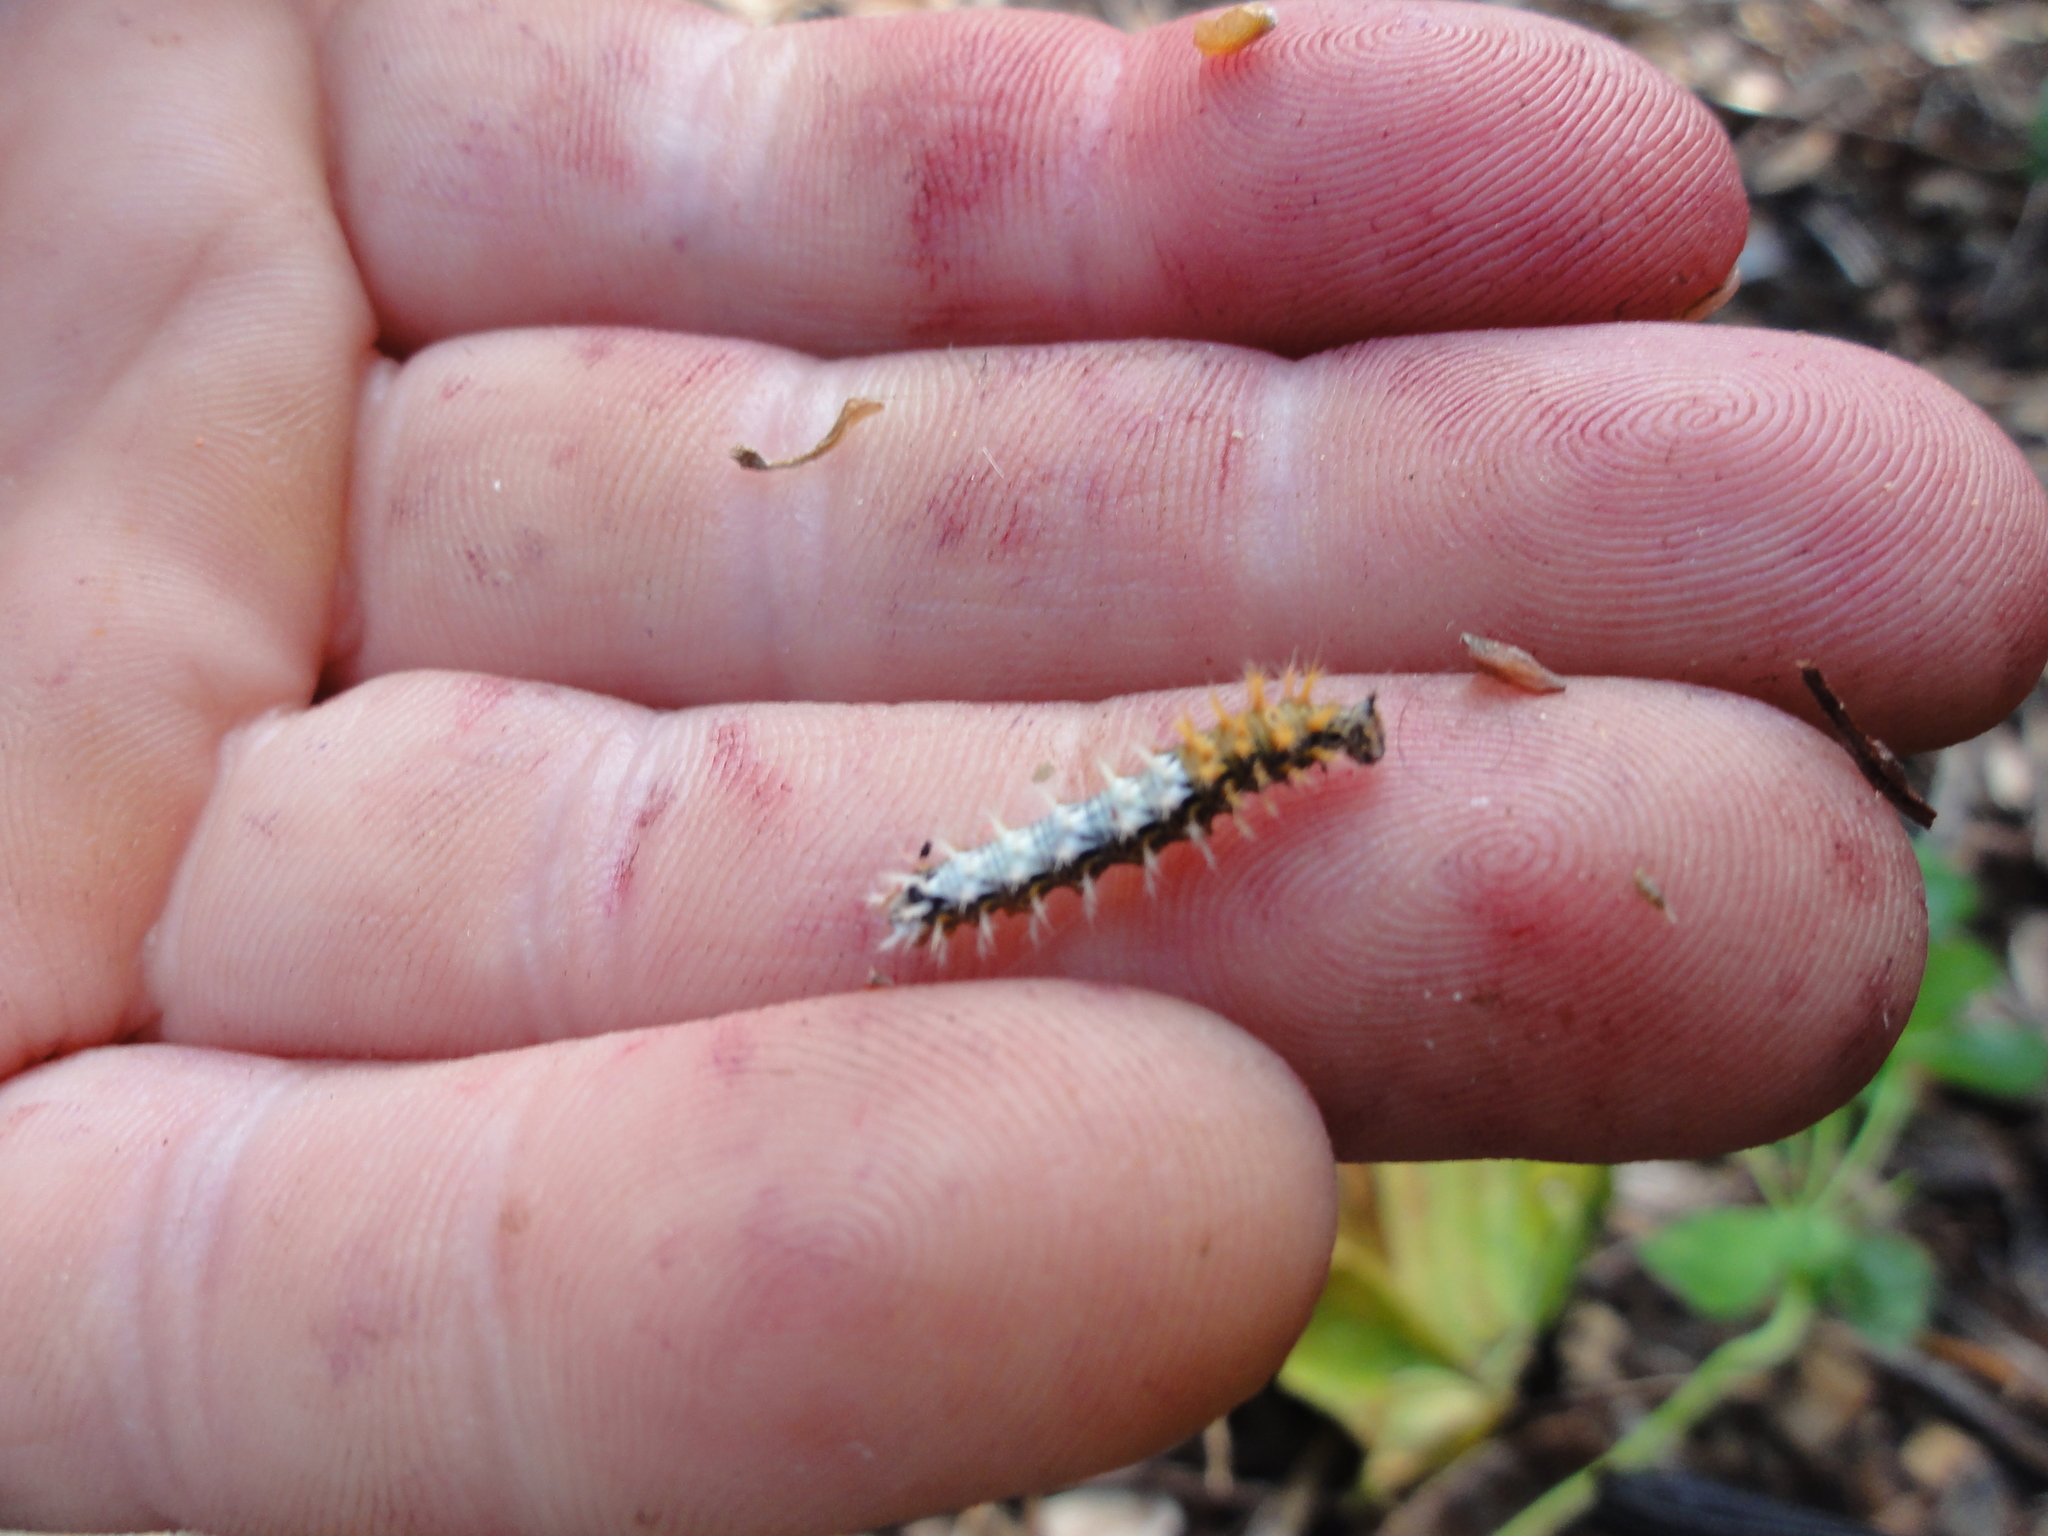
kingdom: Animalia
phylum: Arthropoda
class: Insecta
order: Lepidoptera
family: Nymphalidae
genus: Polygonia
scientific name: Polygonia c-album
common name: Comma
